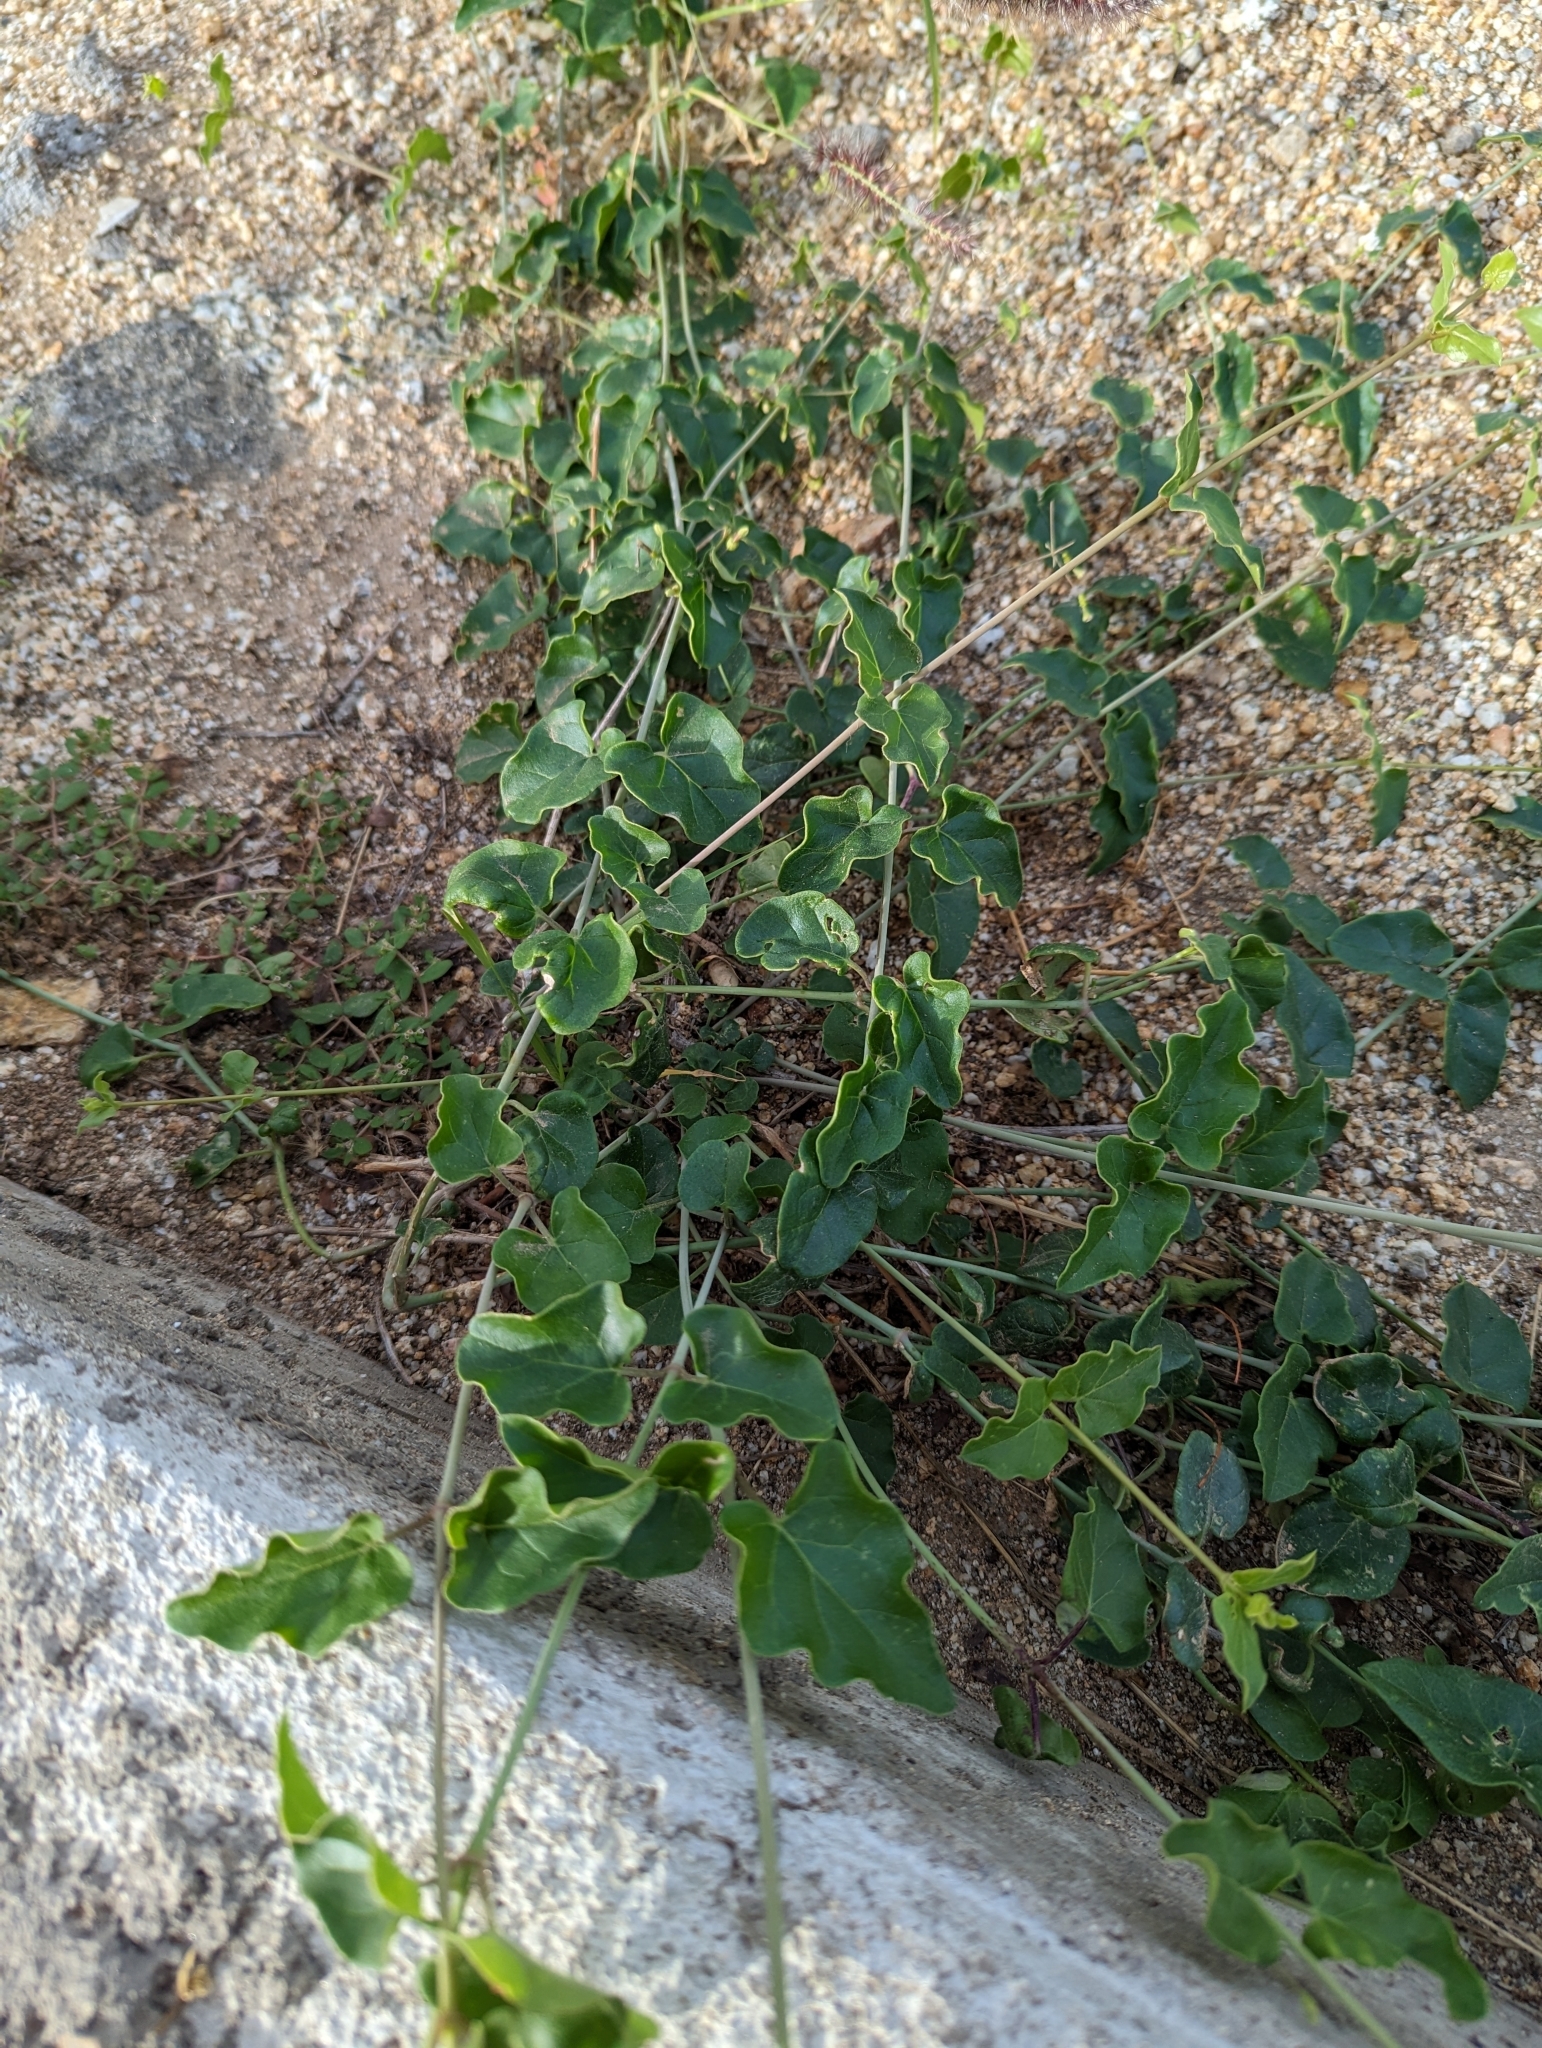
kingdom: Plantae
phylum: Tracheophyta
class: Magnoliopsida
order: Caryophyllales
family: Nyctaginaceae
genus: Commicarpus
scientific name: Commicarpus brandegeei
